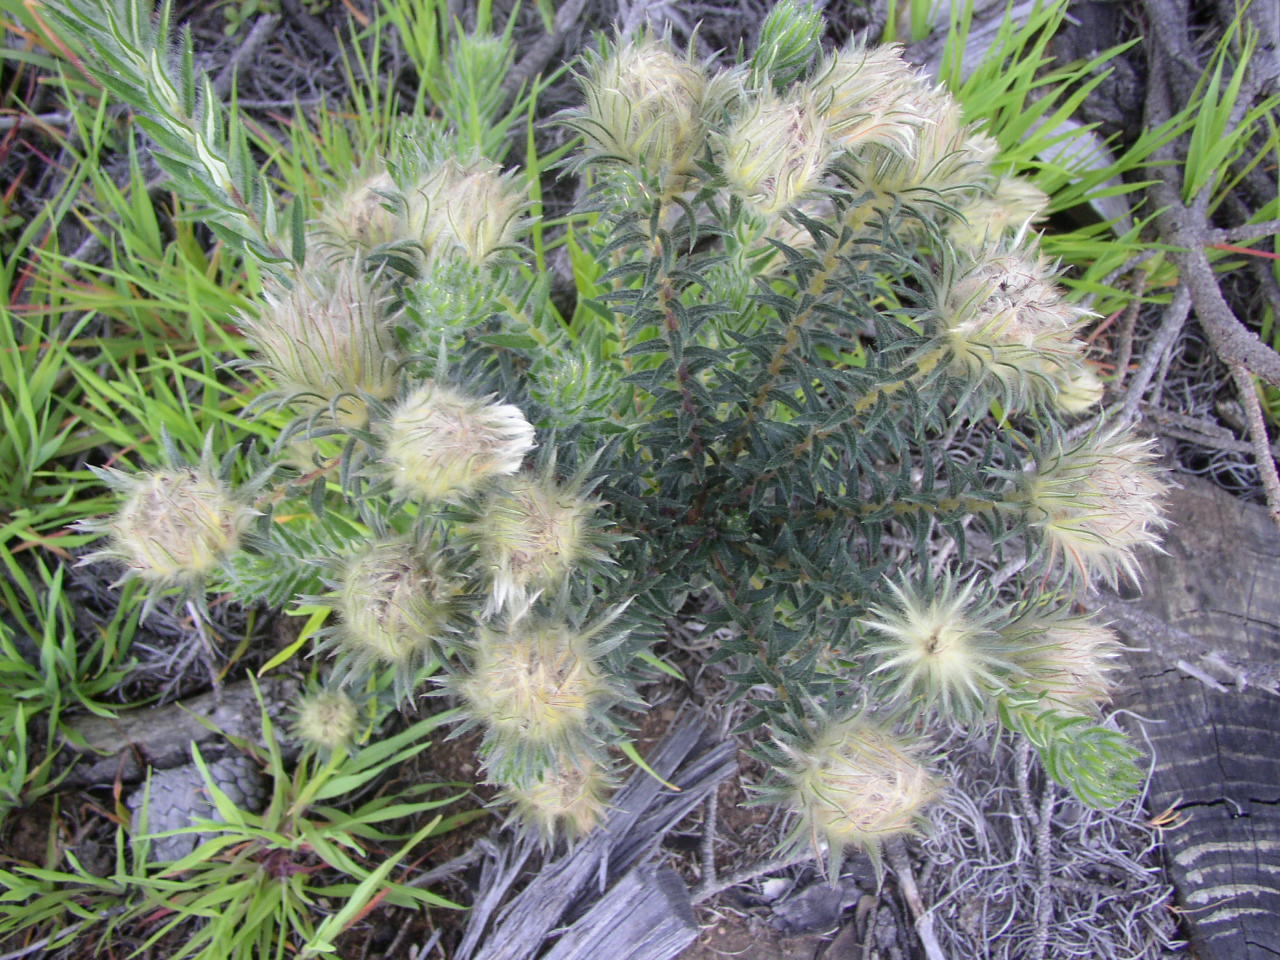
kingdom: Plantae
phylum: Tracheophyta
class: Magnoliopsida
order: Rosales
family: Rhamnaceae
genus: Phylica
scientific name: Phylica pubescens
